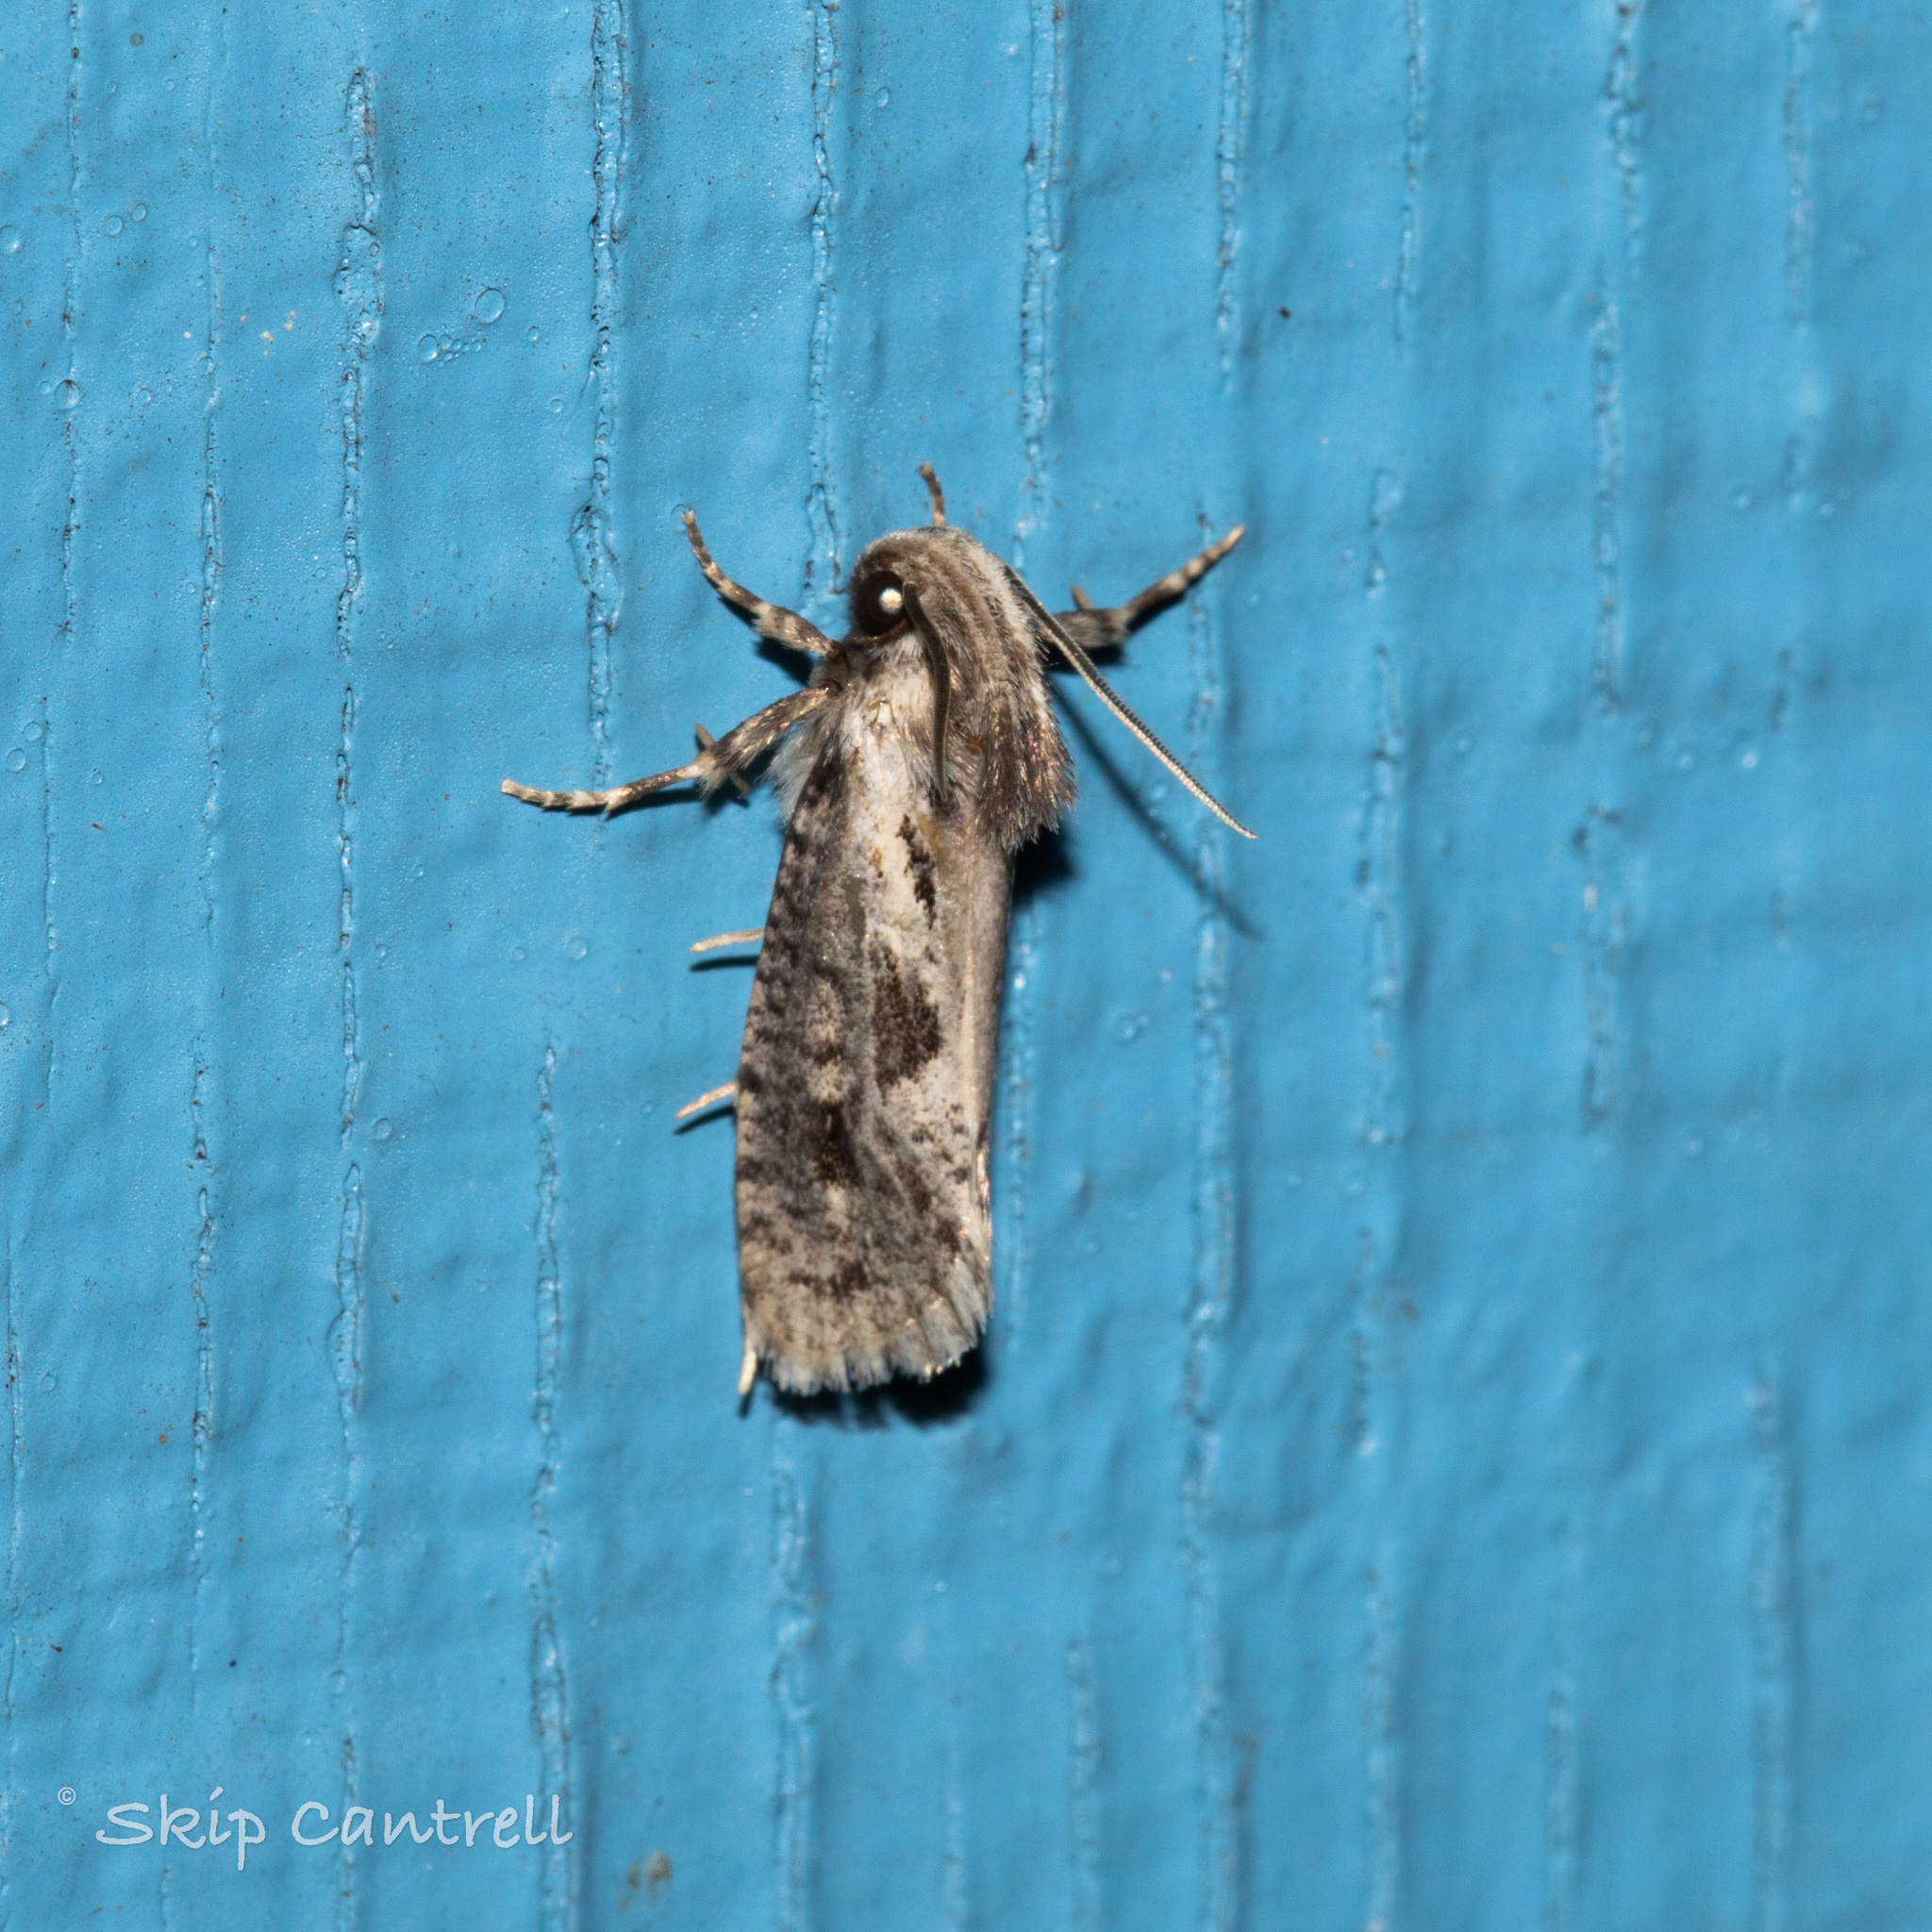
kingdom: Animalia
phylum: Arthropoda
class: Insecta
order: Lepidoptera
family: Tineidae
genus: Acrolophus
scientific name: Acrolophus popeanella
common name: Clemens' grass tubeworm moth
